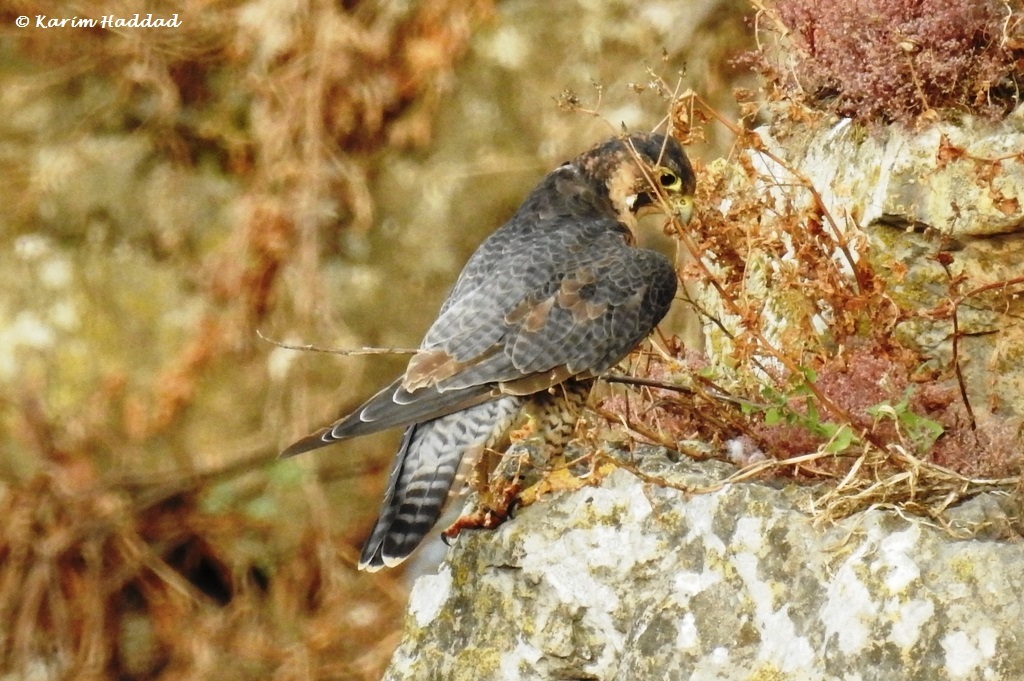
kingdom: Animalia
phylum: Chordata
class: Aves
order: Falconiformes
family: Falconidae
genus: Falco
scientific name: Falco peregrinus
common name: Peregrine falcon
